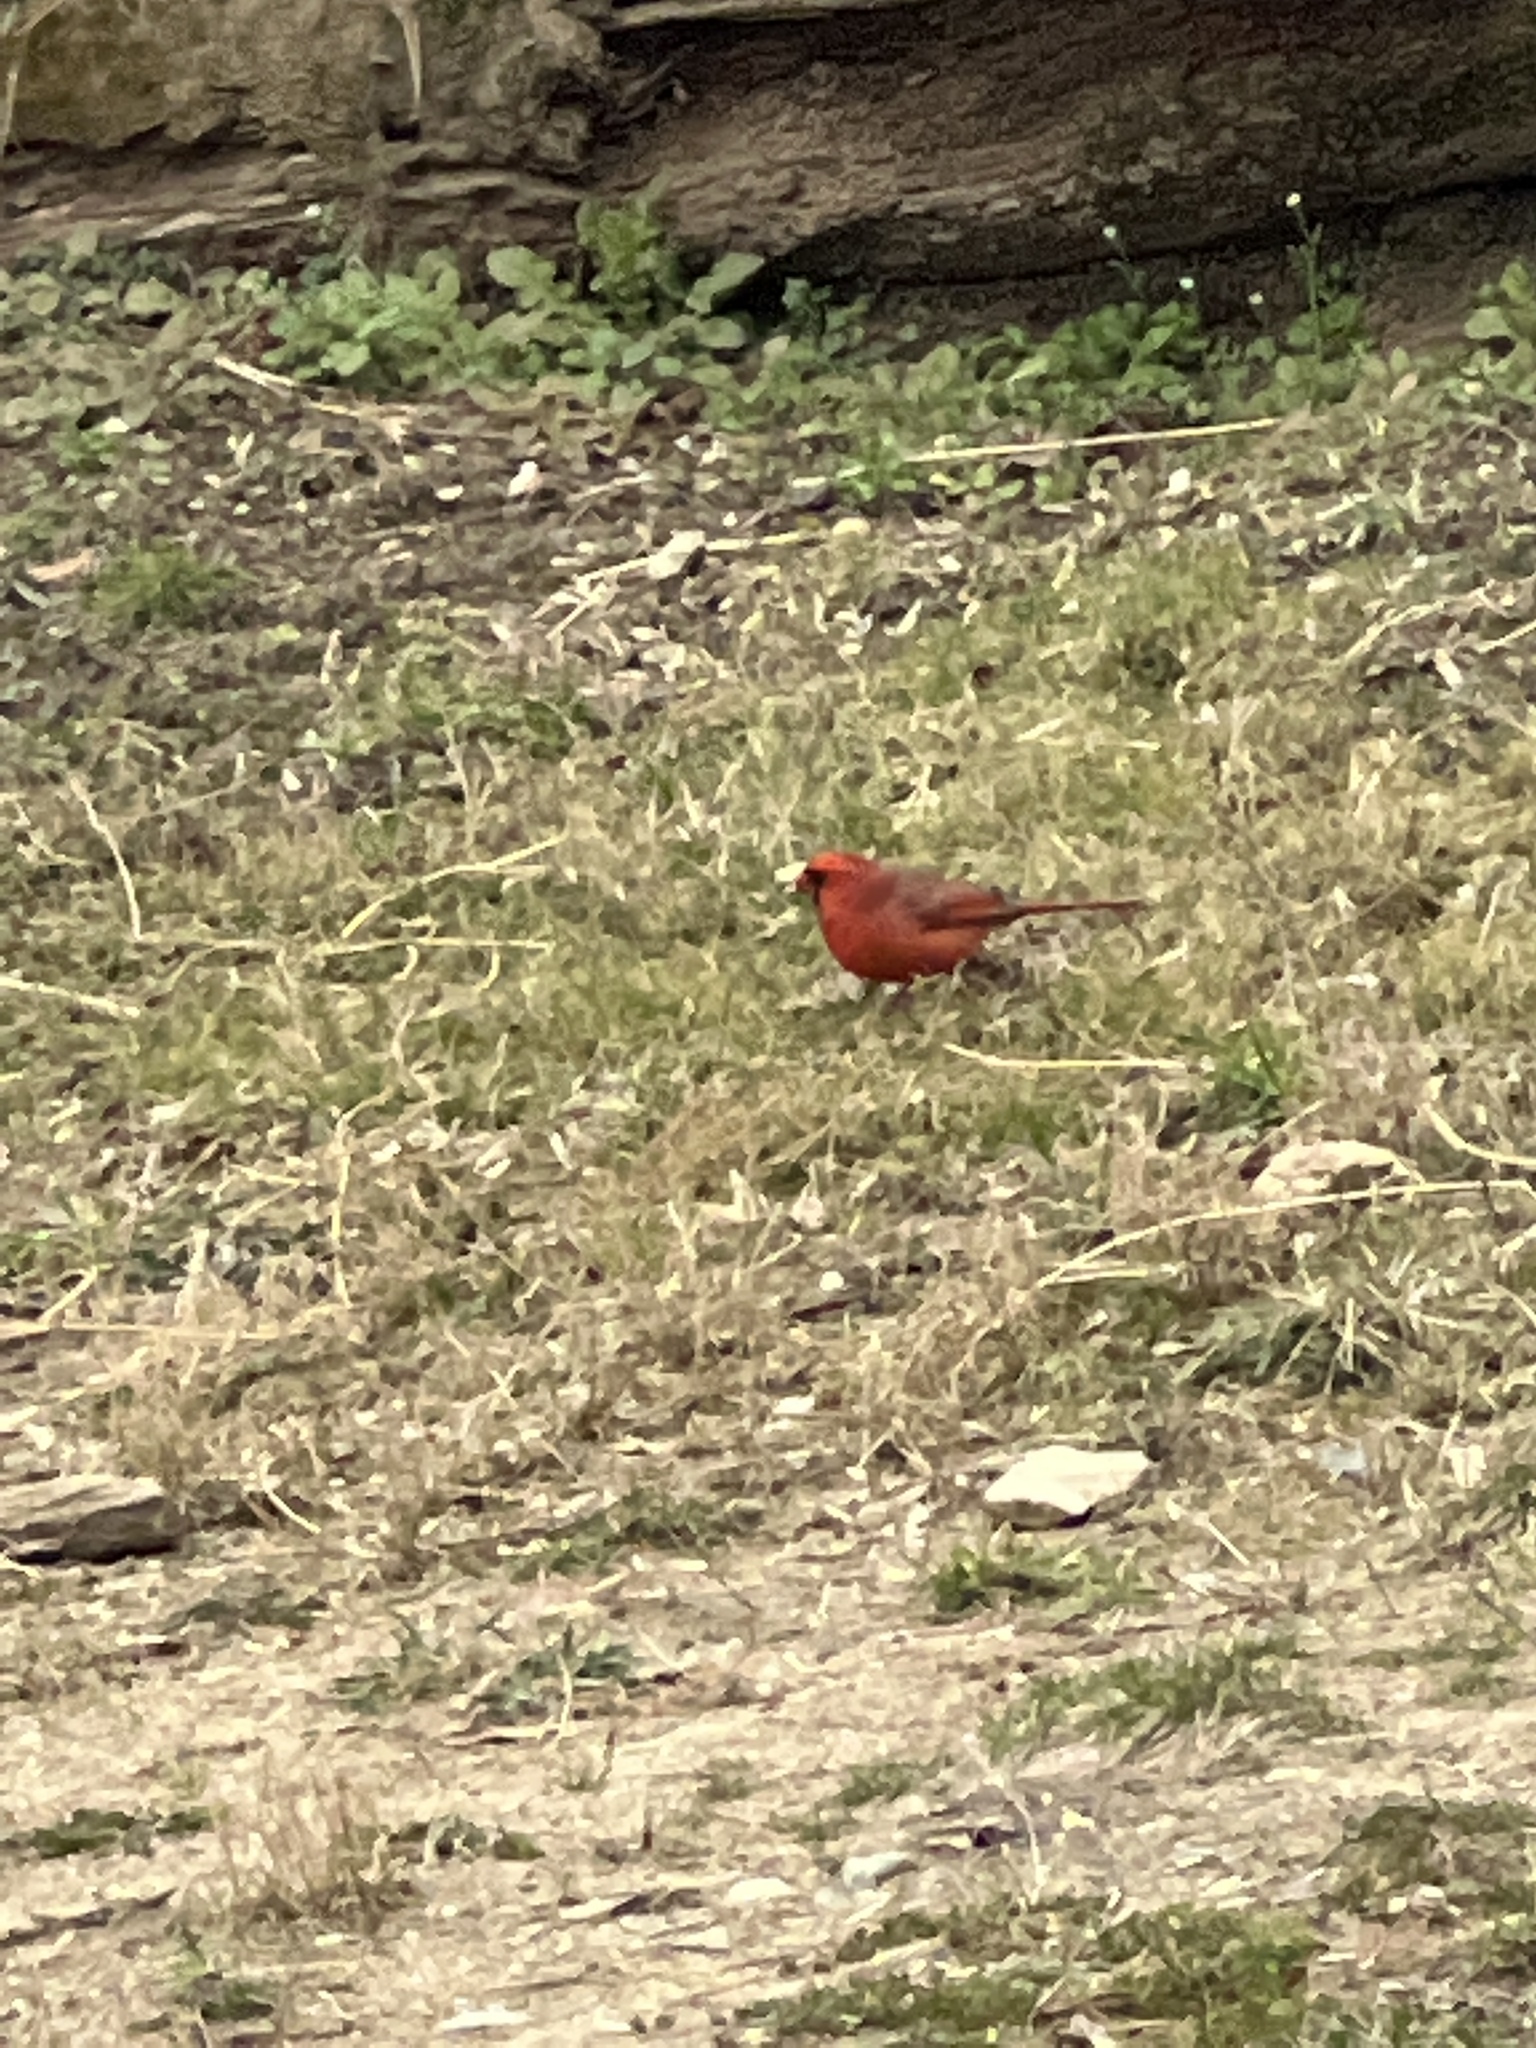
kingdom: Animalia
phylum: Chordata
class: Aves
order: Passeriformes
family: Cardinalidae
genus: Cardinalis
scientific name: Cardinalis cardinalis
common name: Northern cardinal
